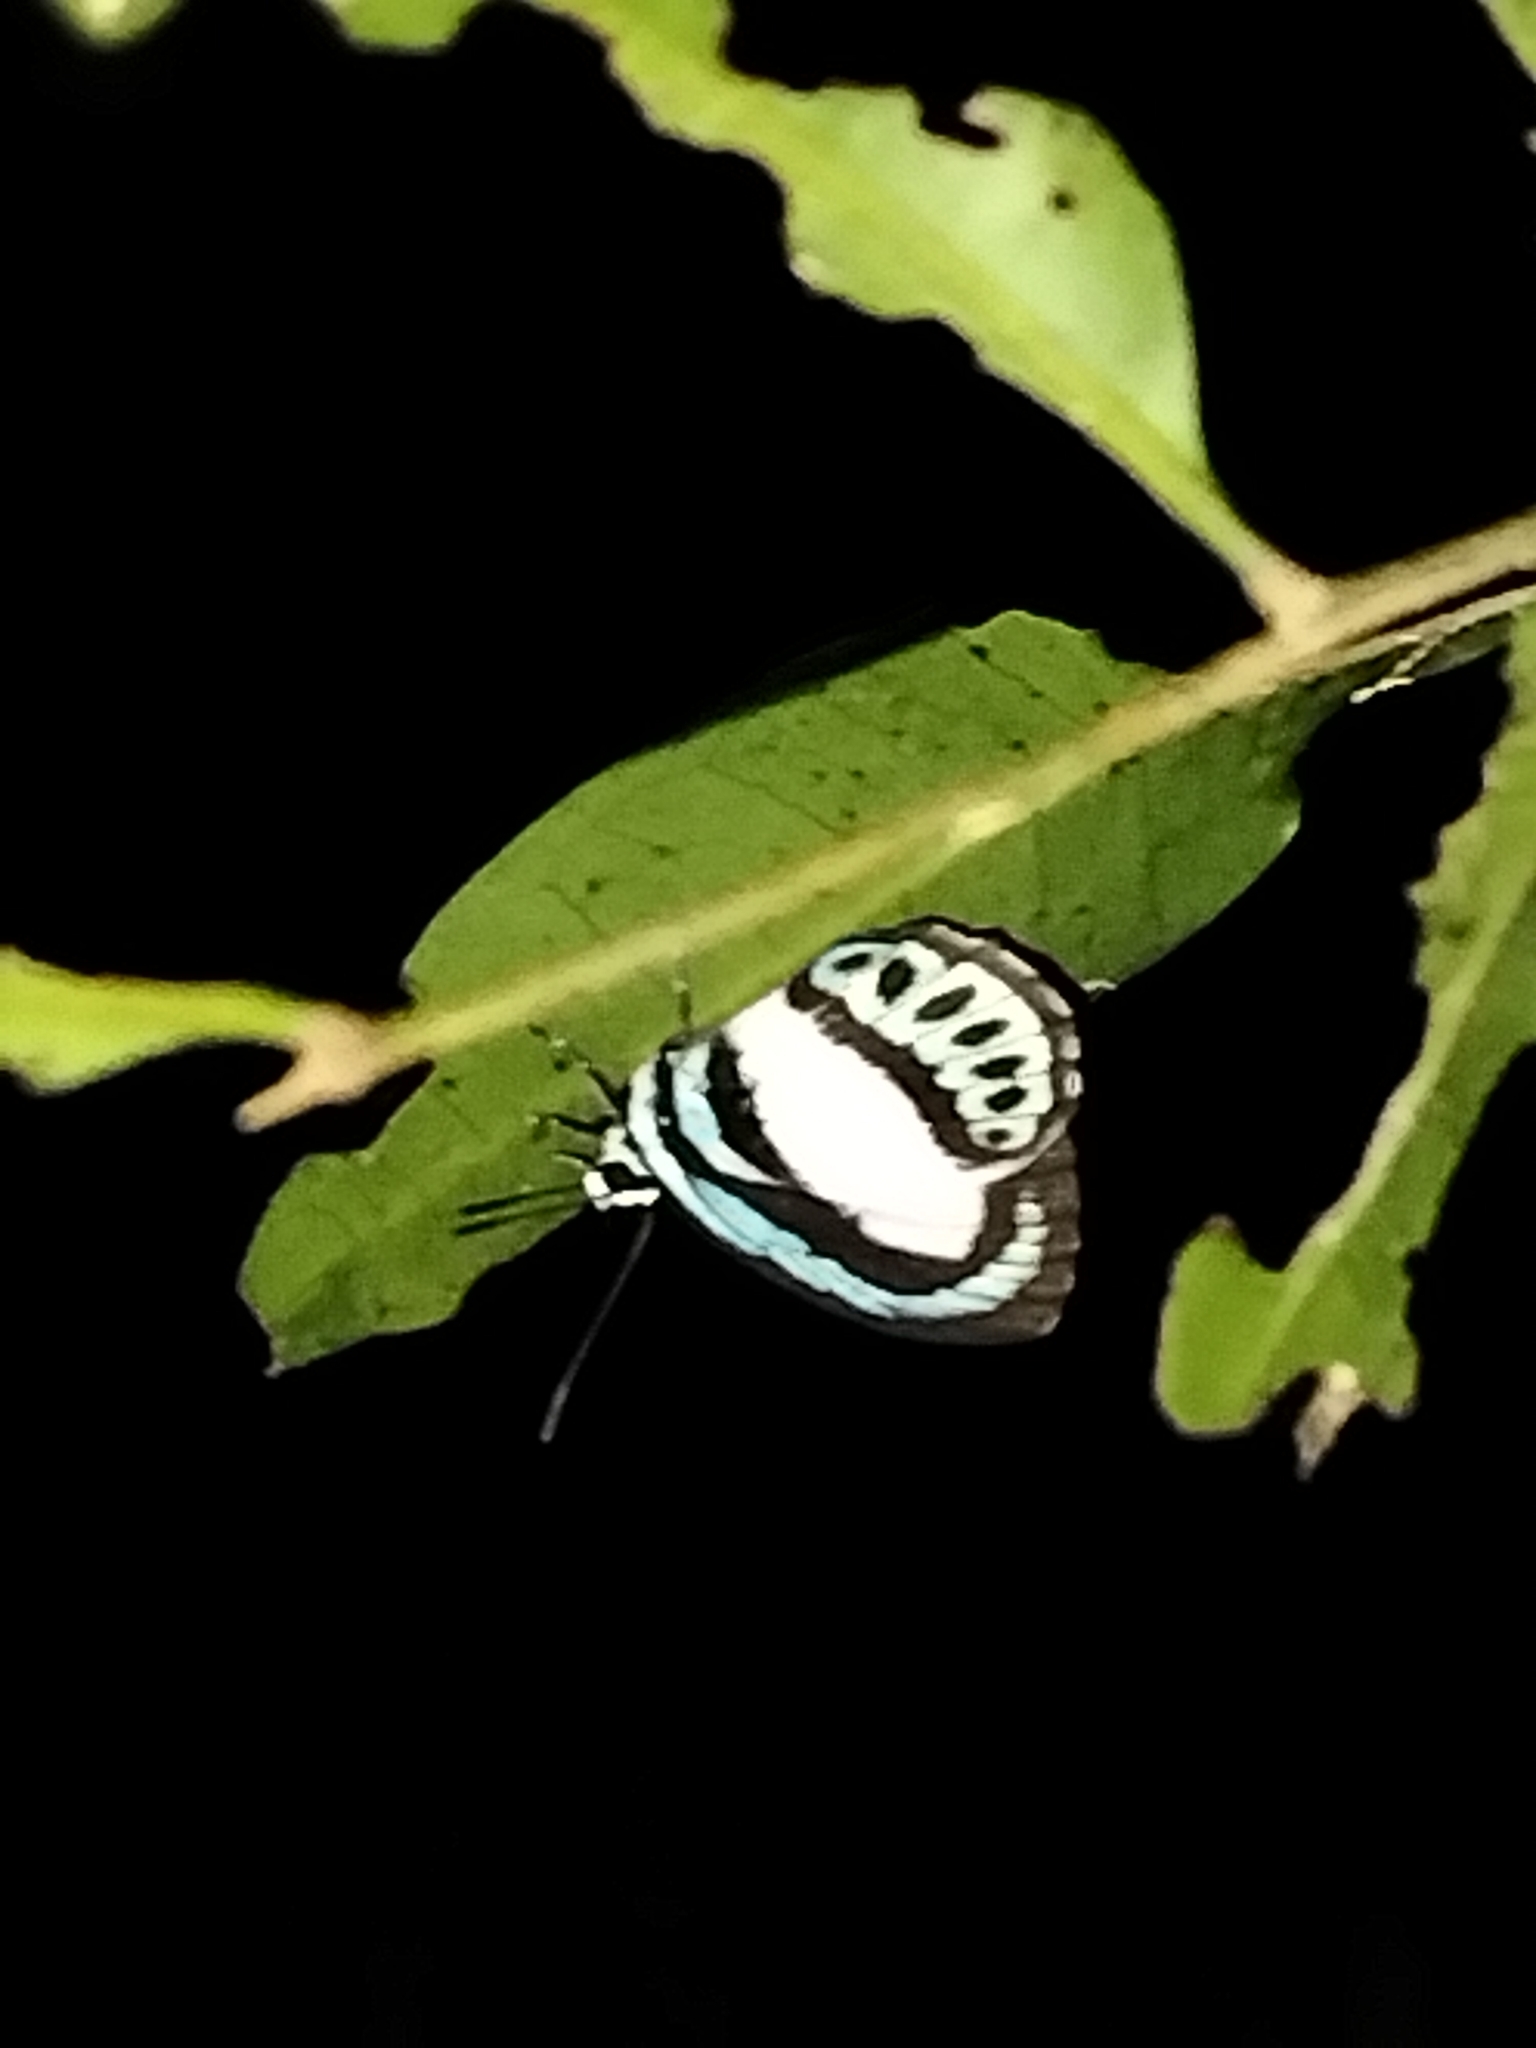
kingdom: Animalia
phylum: Arthropoda
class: Insecta
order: Lepidoptera
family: Lycaenidae
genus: Danis
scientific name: Danis danis
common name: Large green-banded blue
